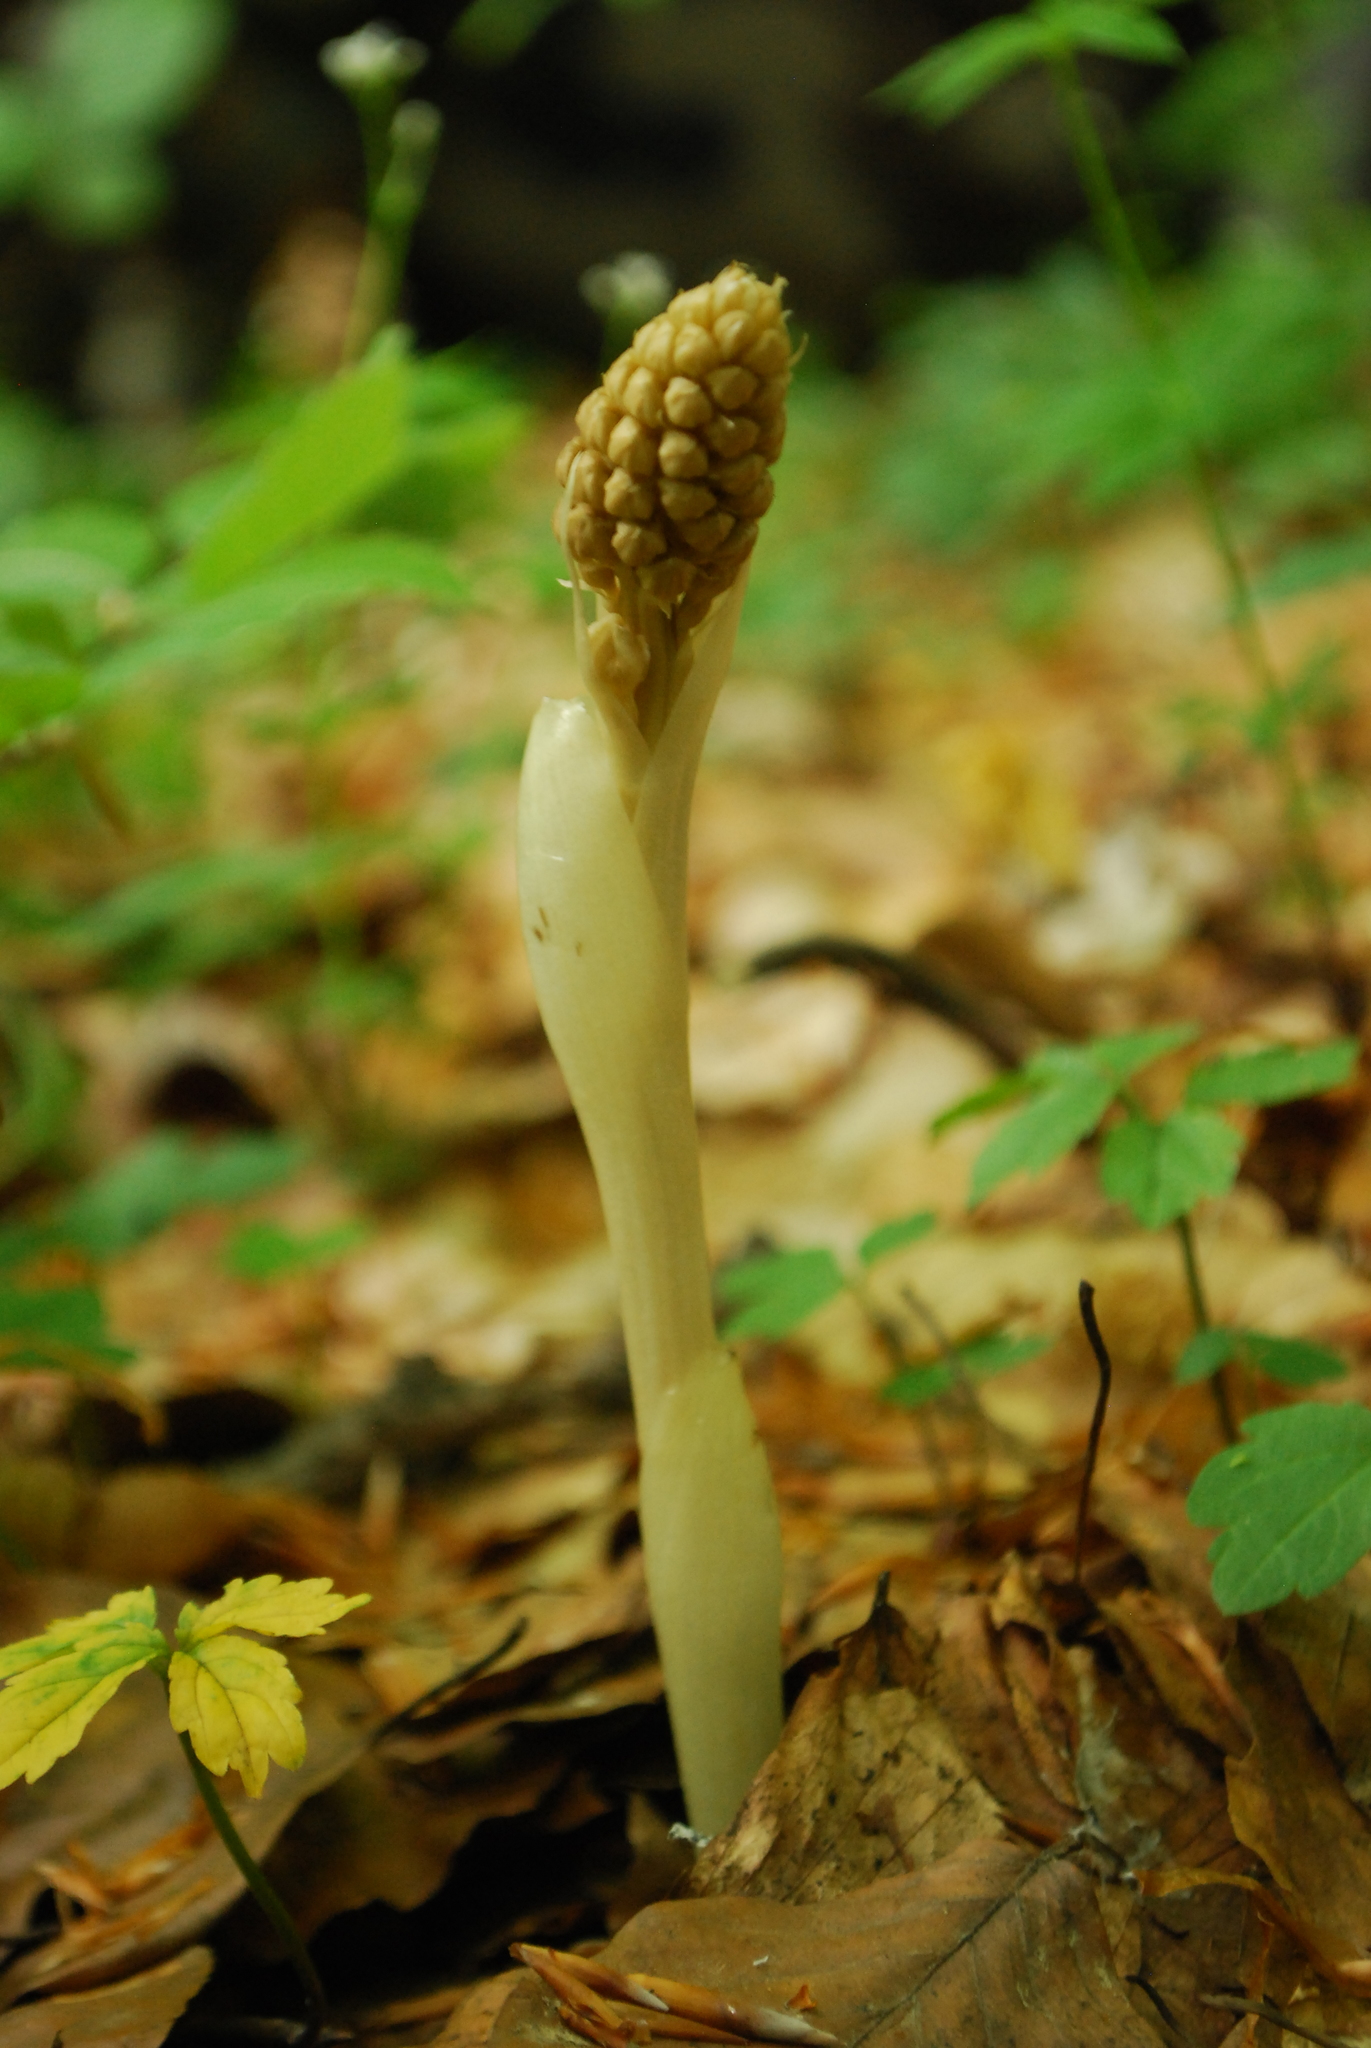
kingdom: Plantae
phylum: Tracheophyta
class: Liliopsida
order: Asparagales
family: Orchidaceae
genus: Neottia
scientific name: Neottia nidus-avis
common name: Bird's-nest orchid
